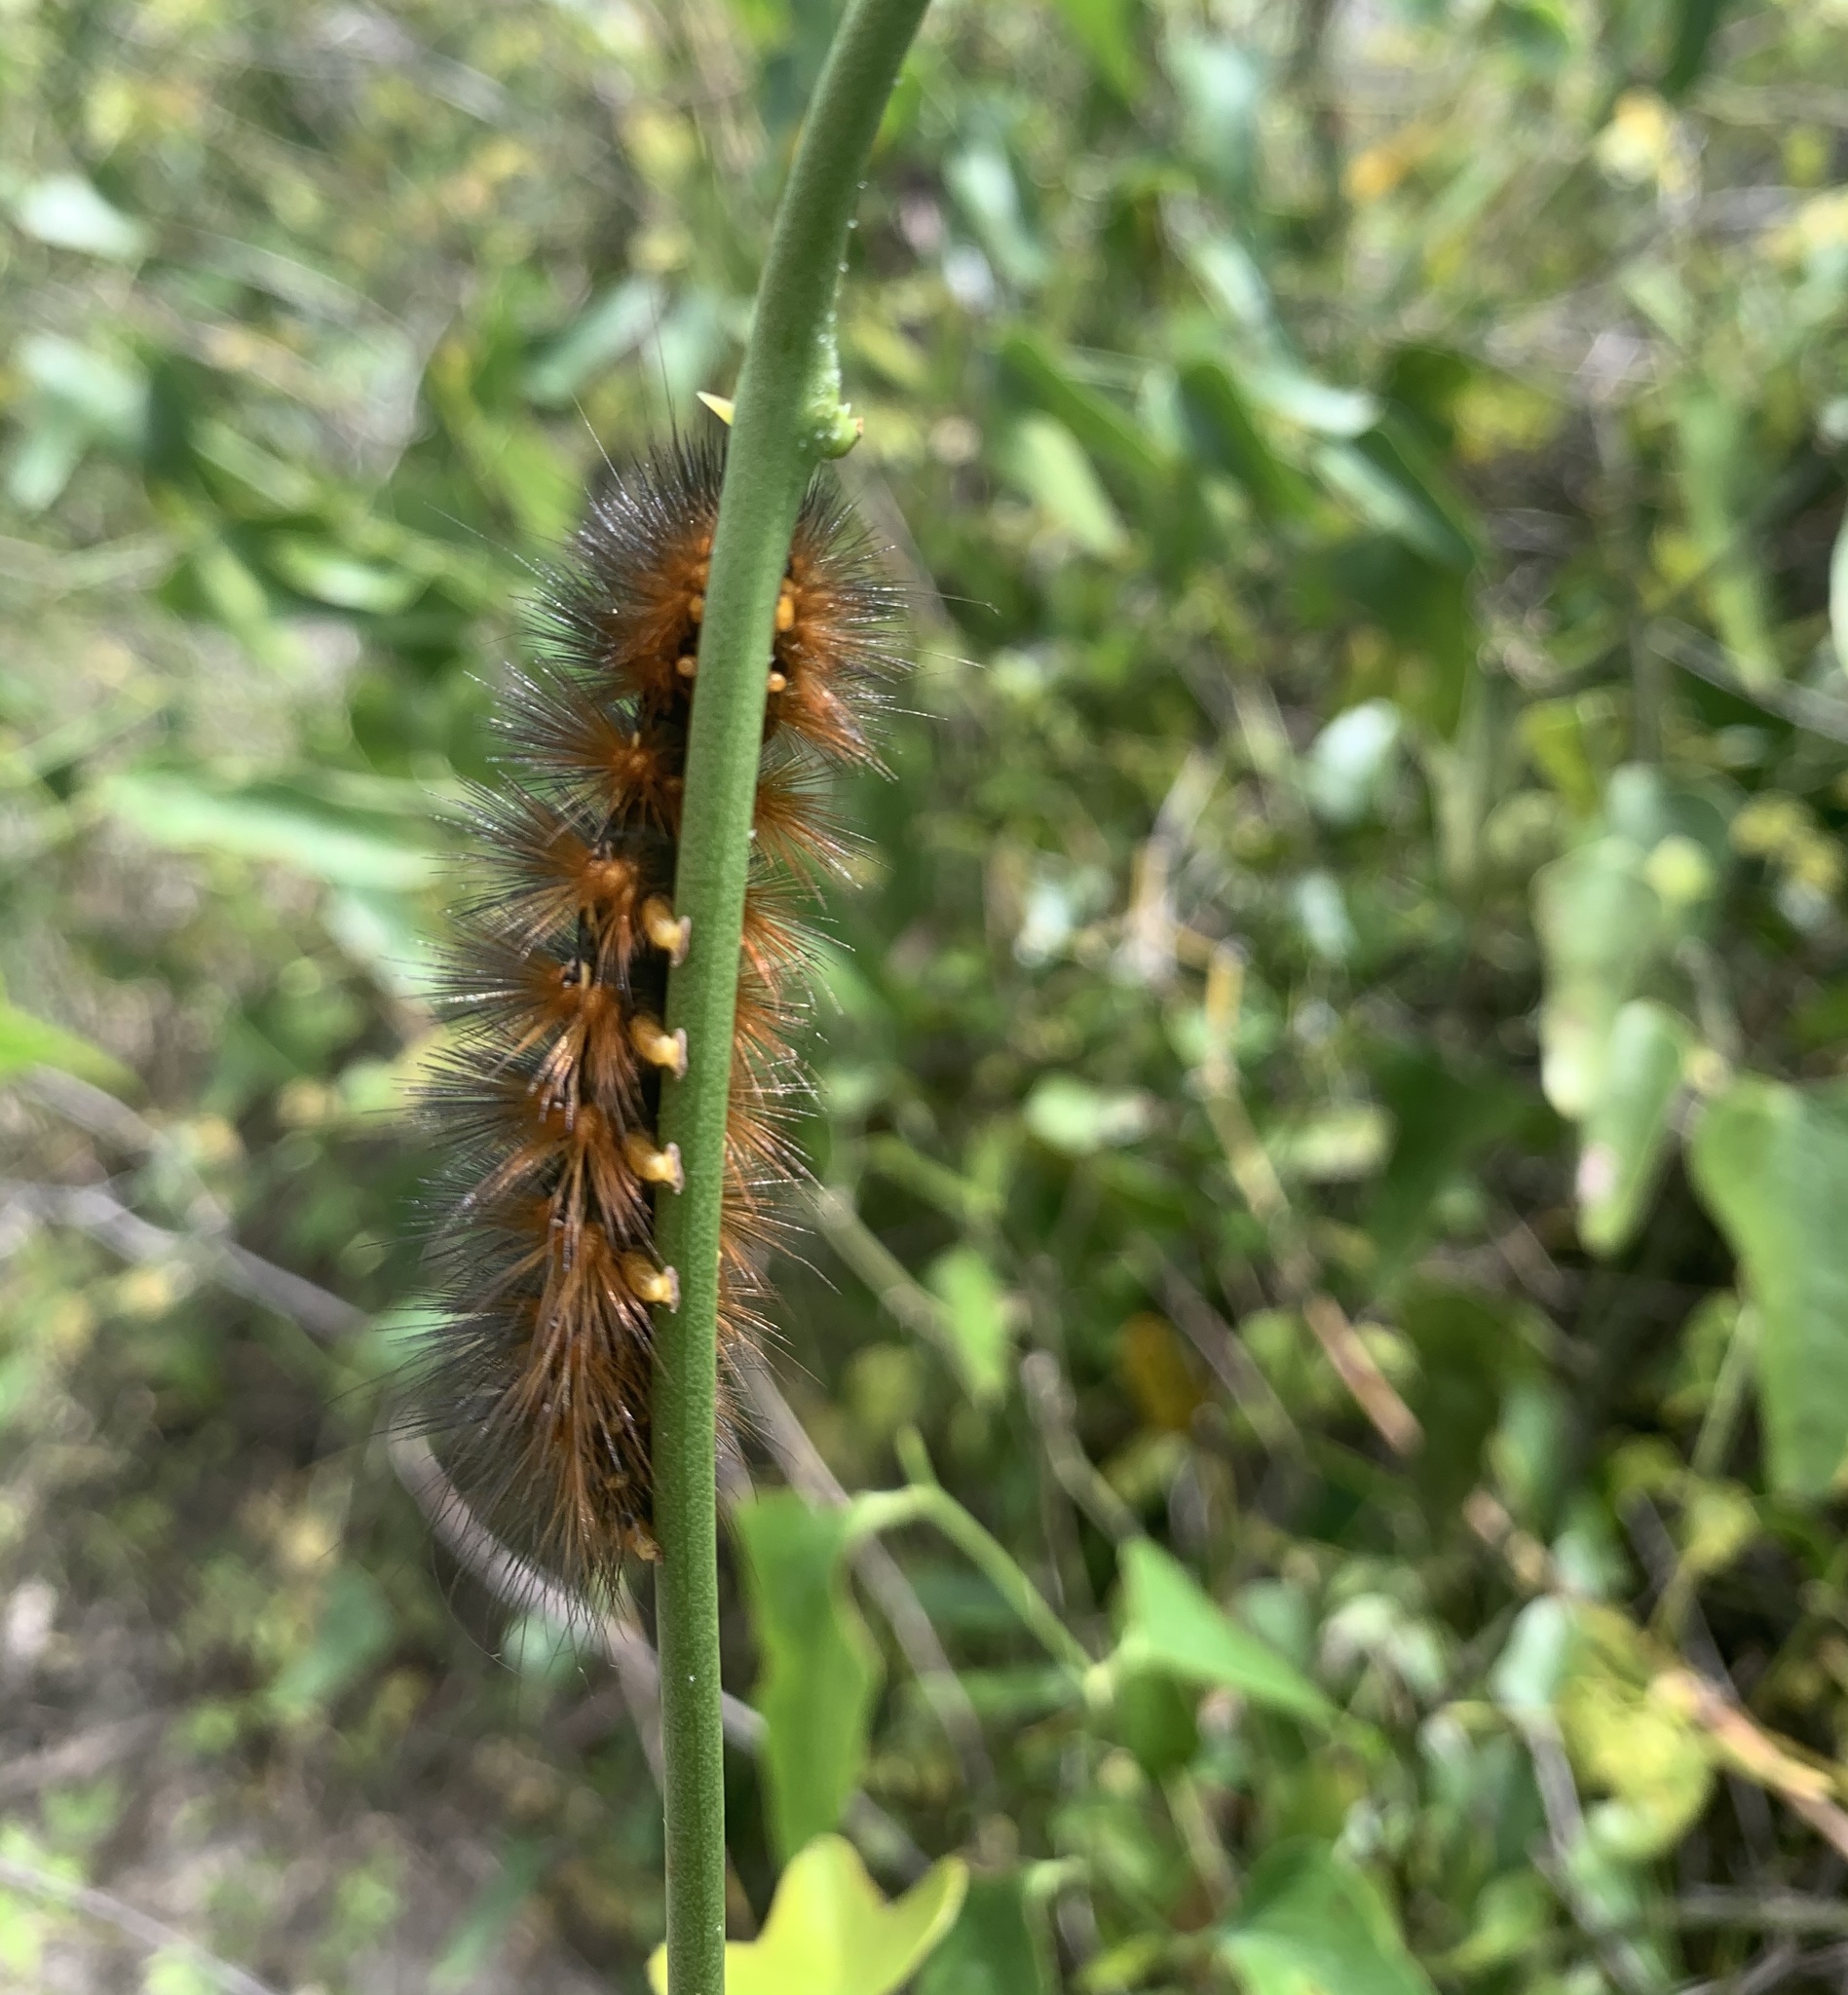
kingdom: Animalia
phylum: Arthropoda
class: Insecta
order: Lepidoptera
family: Erebidae
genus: Estigmene
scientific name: Estigmene acrea
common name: Salt marsh moth
